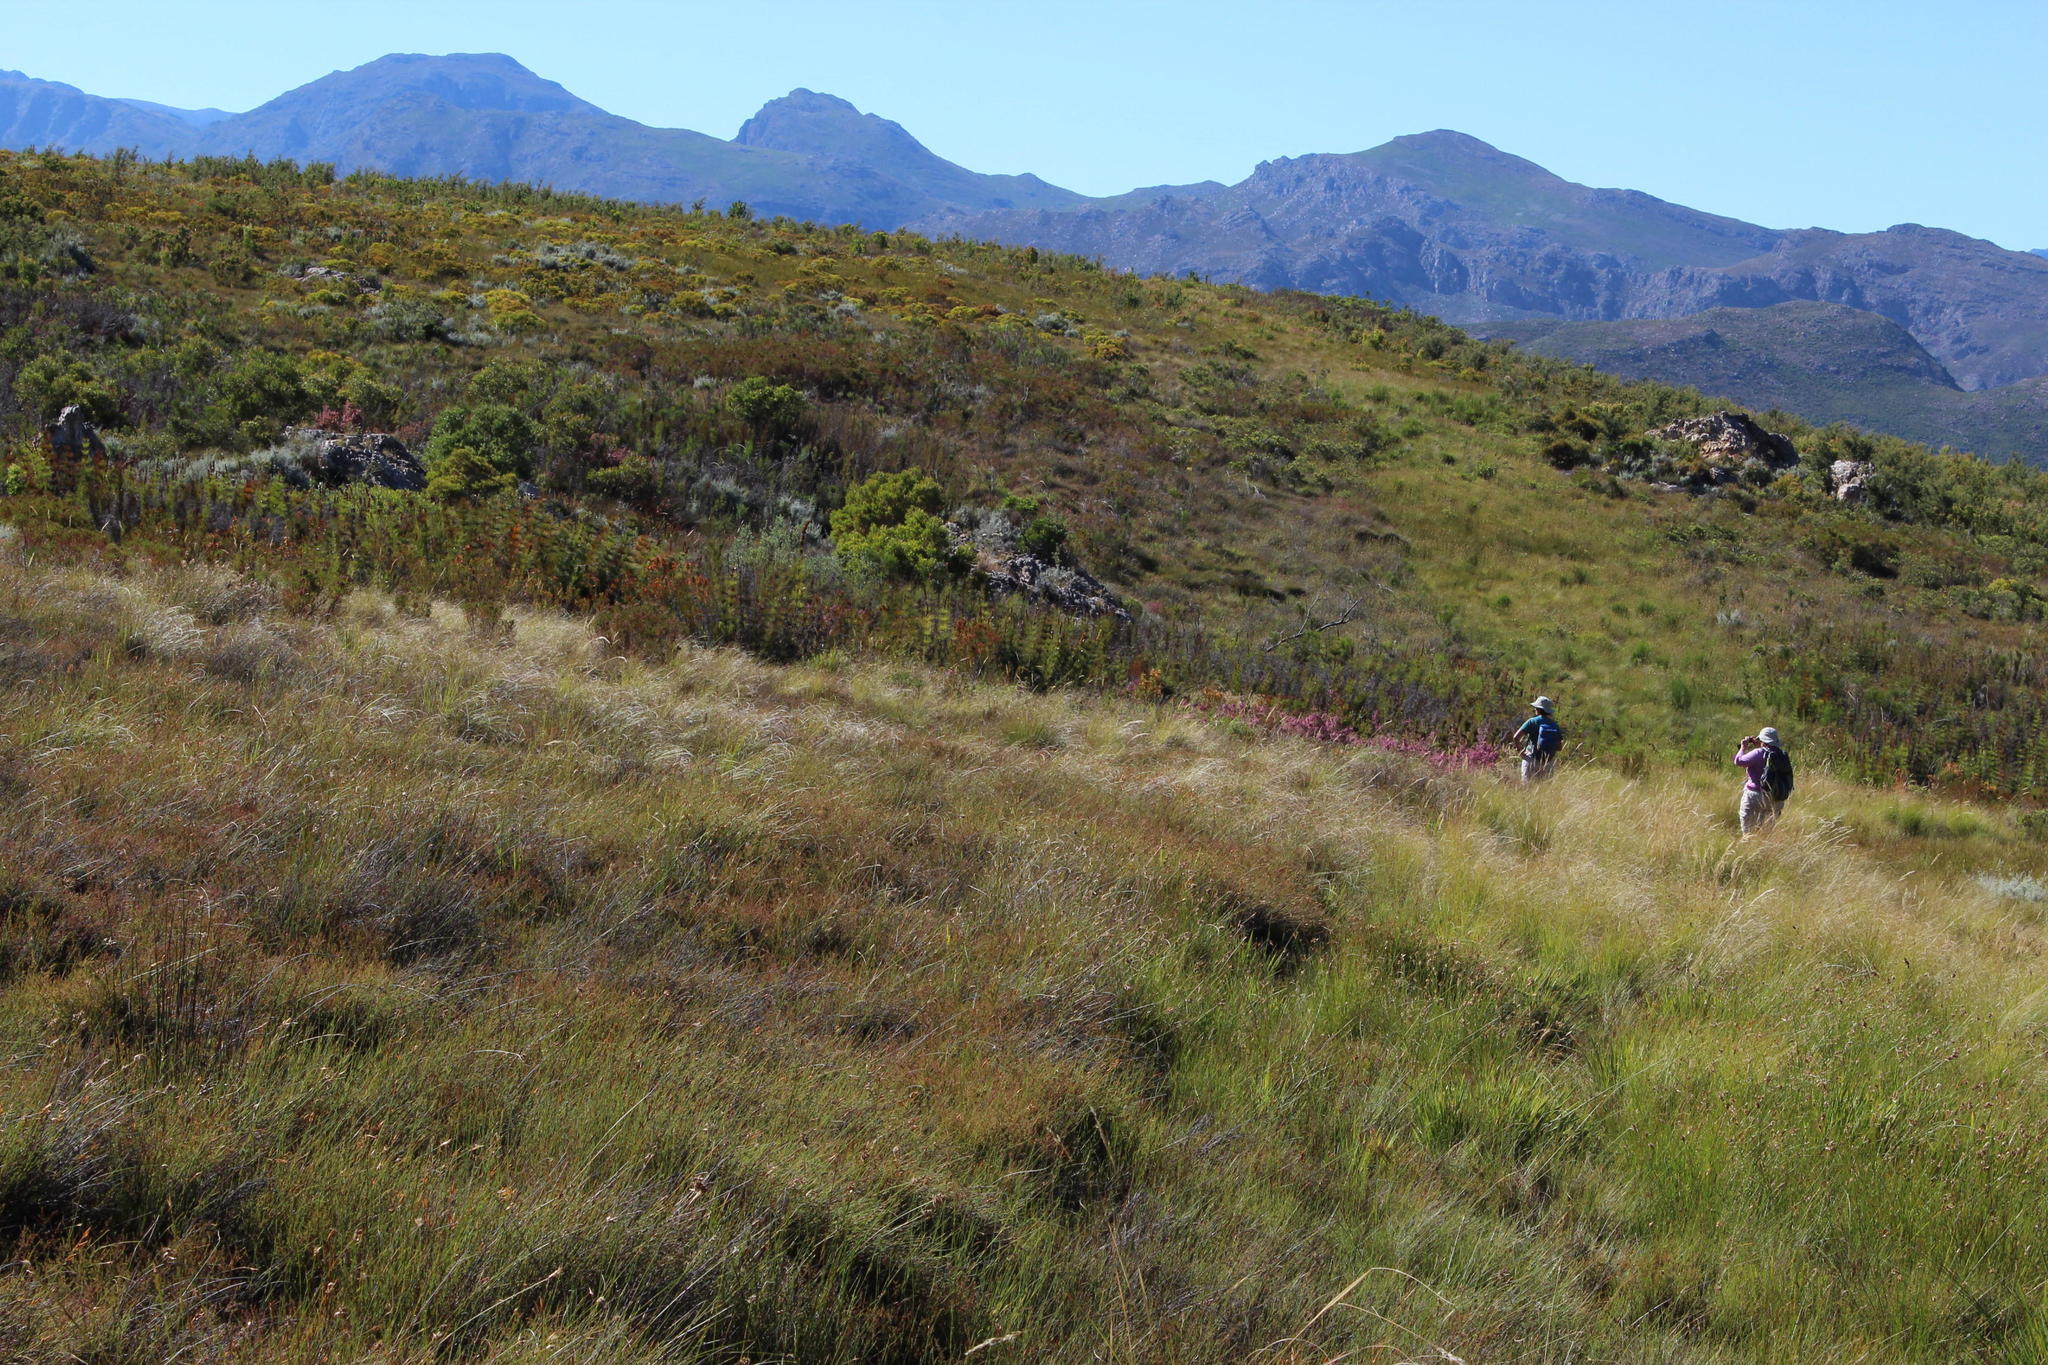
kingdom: Plantae
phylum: Tracheophyta
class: Liliopsida
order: Poales
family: Restionaceae
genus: Elegia
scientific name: Elegia capensis
